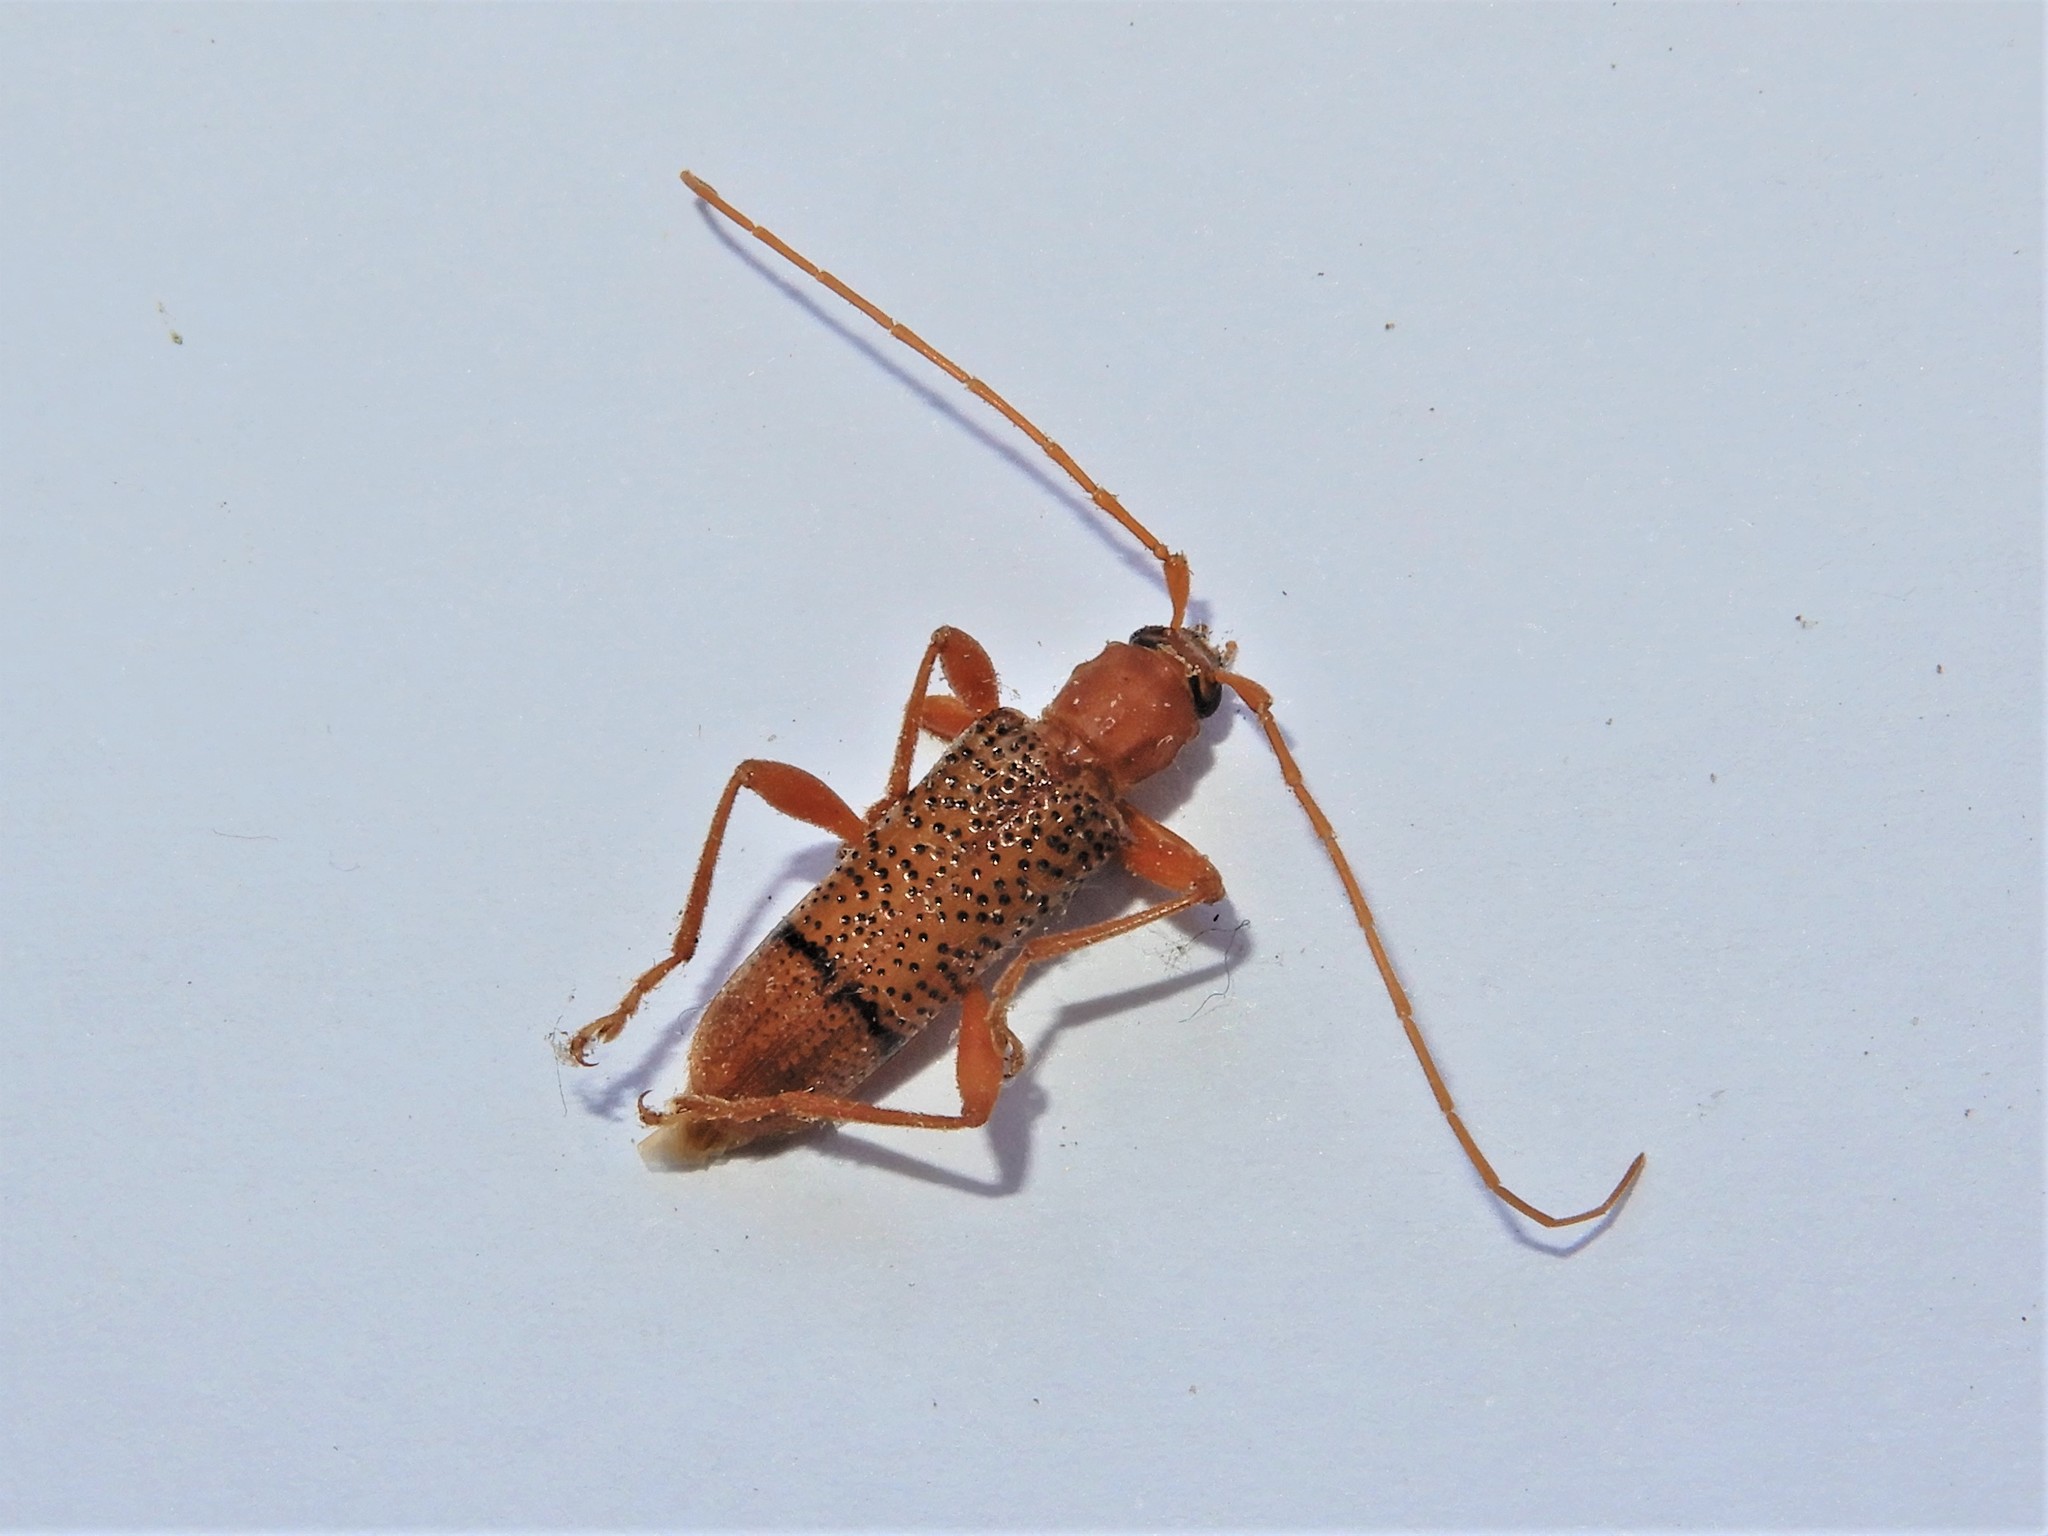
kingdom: Animalia
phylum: Arthropoda
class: Insecta
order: Coleoptera
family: Cerambycidae
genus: Xuthodes
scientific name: Xuthodes punctipennis
